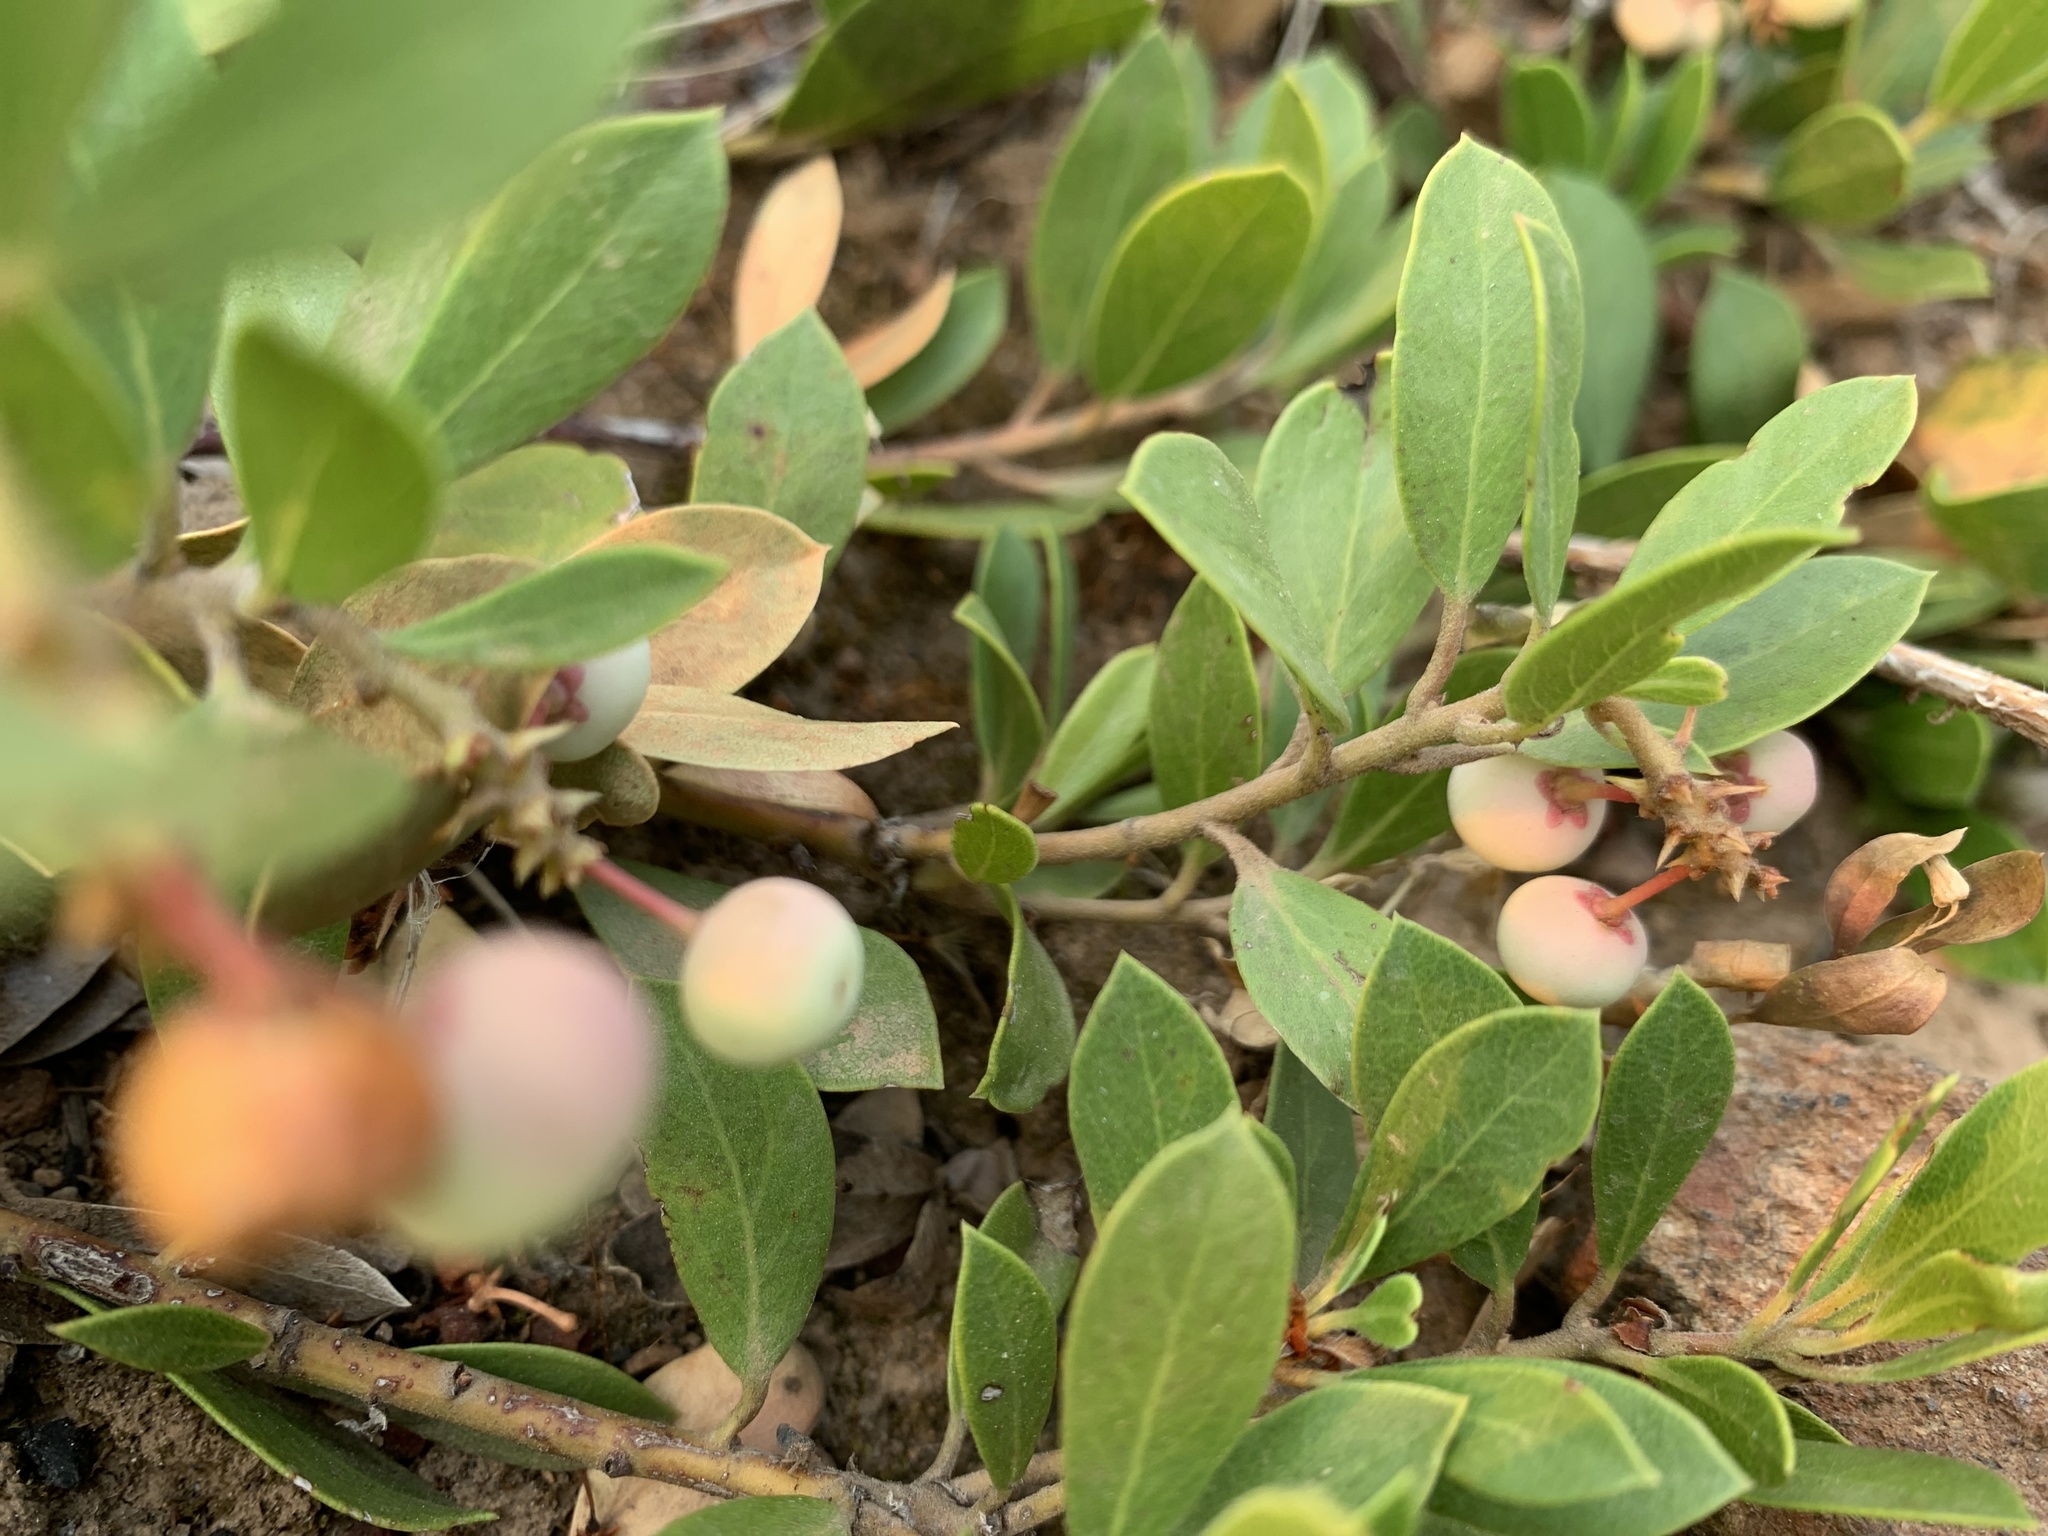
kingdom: Plantae
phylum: Tracheophyta
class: Magnoliopsida
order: Ericales
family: Ericaceae
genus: Arctostaphylos
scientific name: Arctostaphylos nevadensis
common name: Pinemat manzanita
